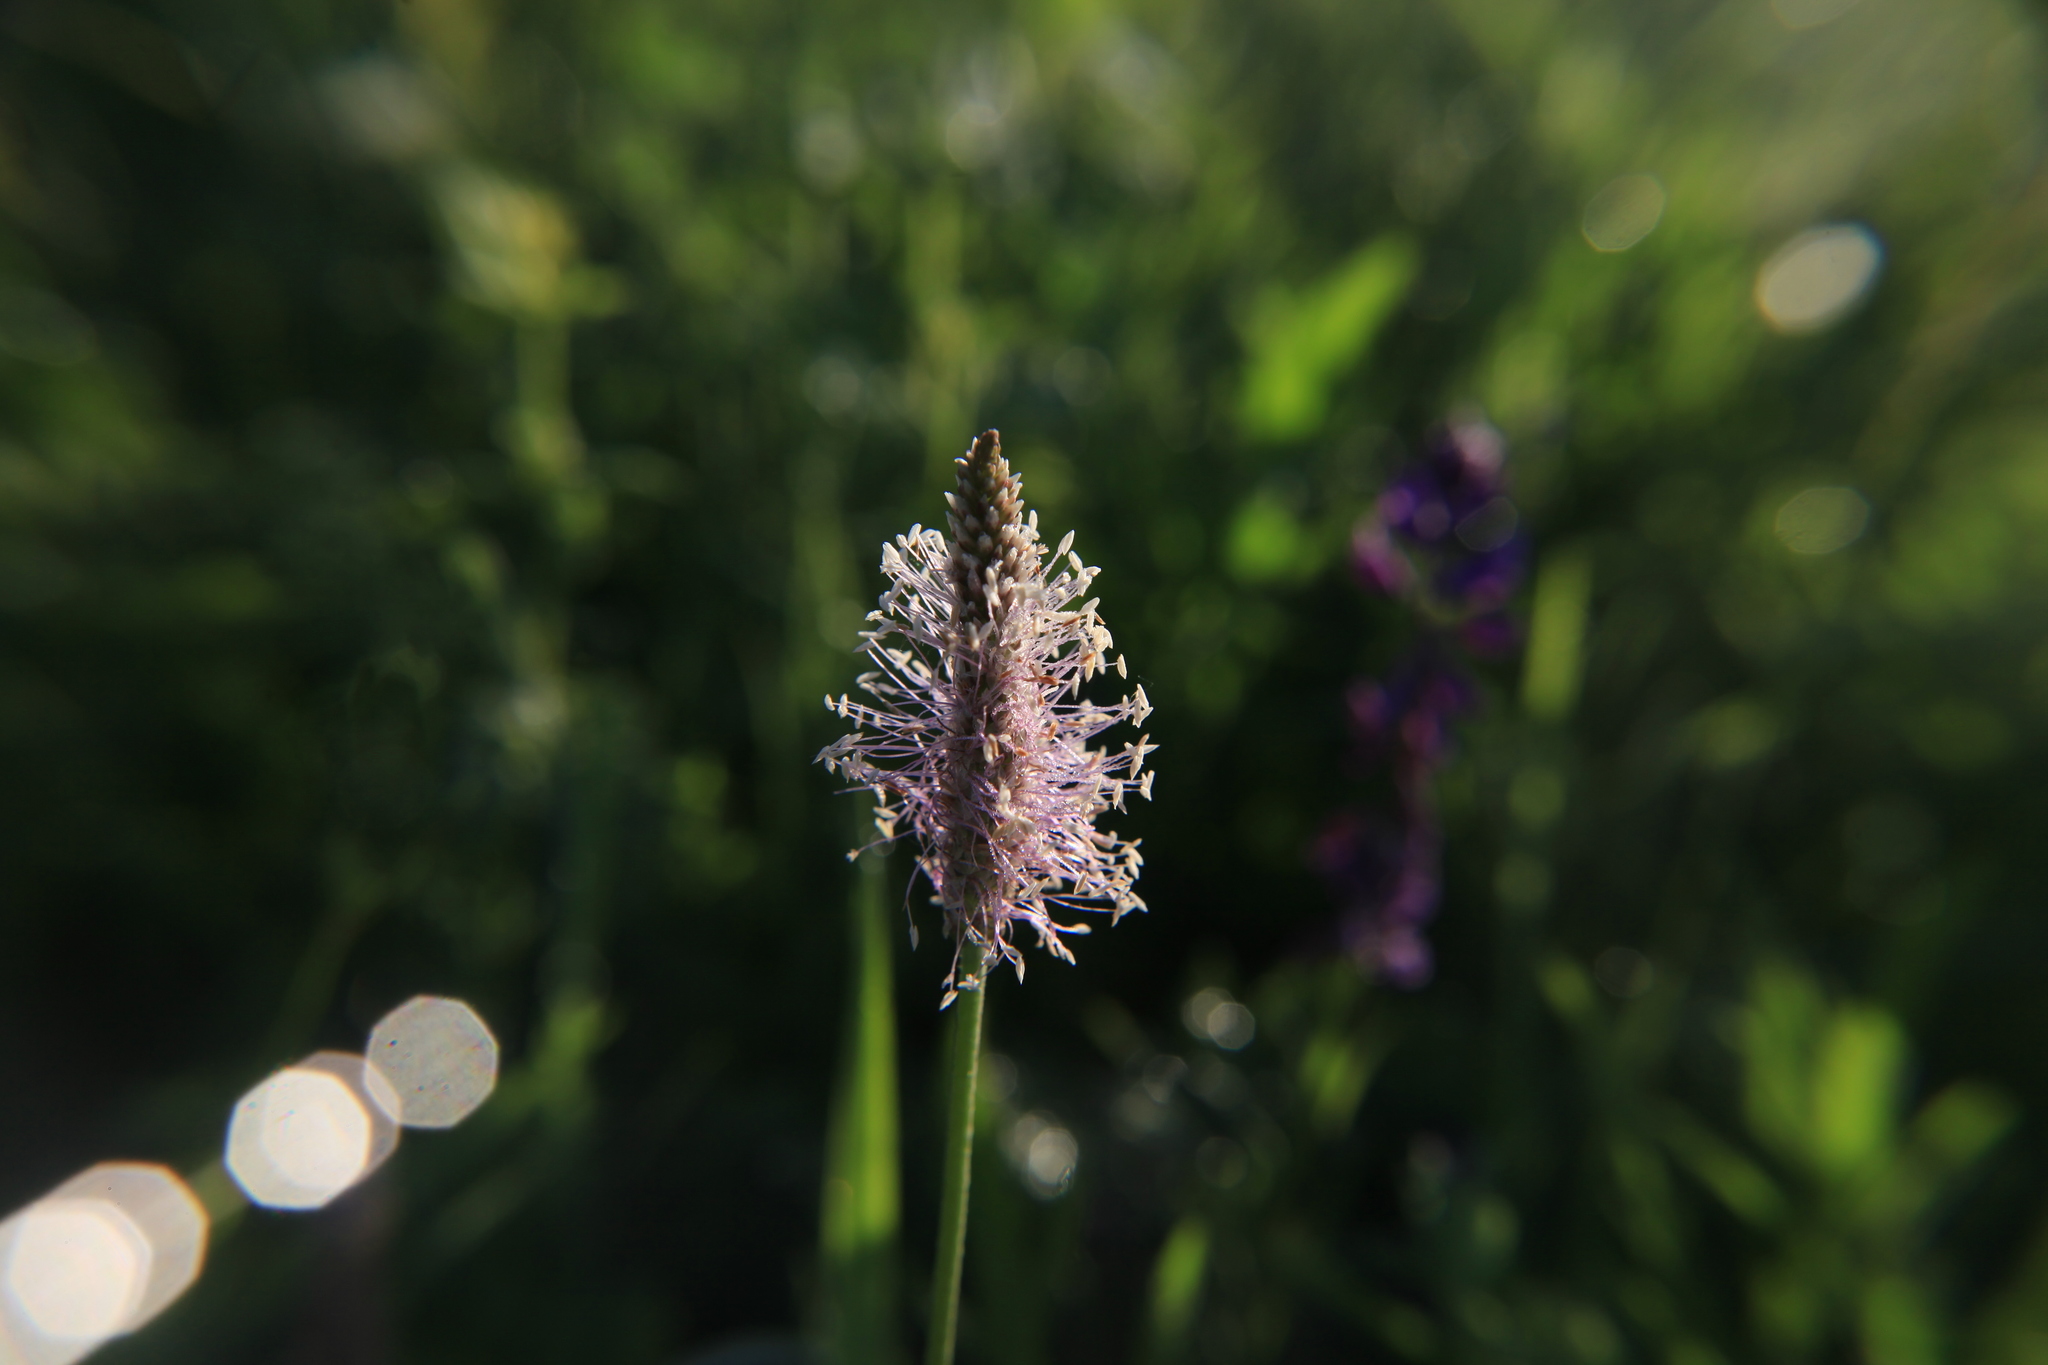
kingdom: Plantae
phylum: Tracheophyta
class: Magnoliopsida
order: Lamiales
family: Plantaginaceae
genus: Plantago
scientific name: Plantago media
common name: Hoary plantain
